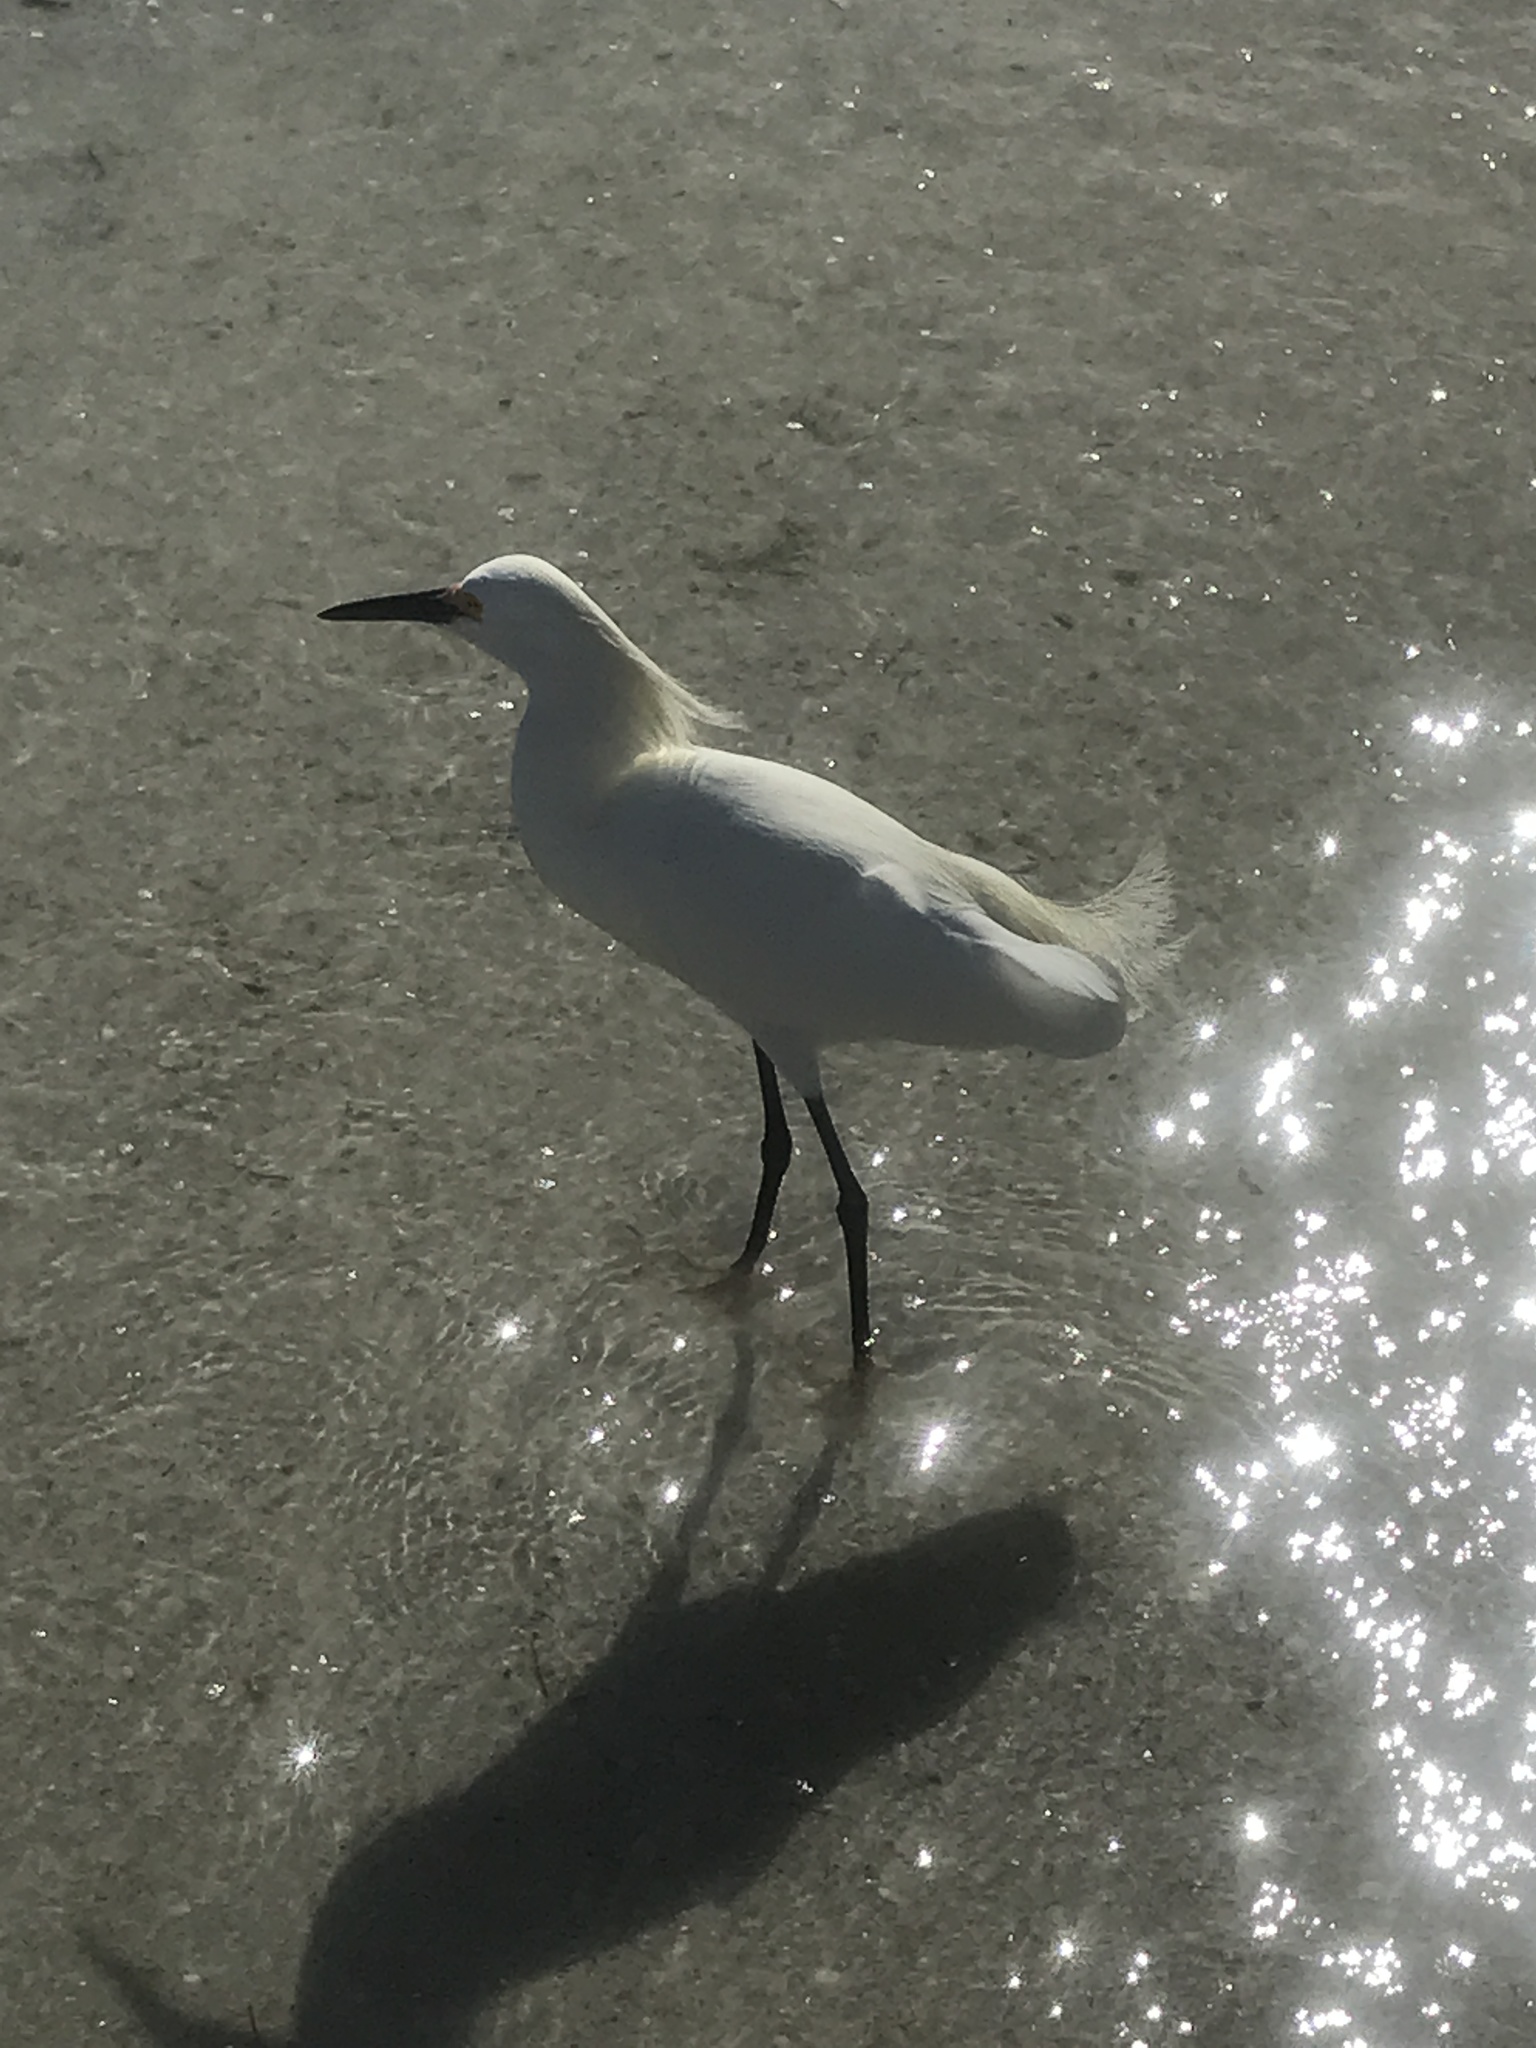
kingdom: Animalia
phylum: Chordata
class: Aves
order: Pelecaniformes
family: Ardeidae
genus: Egretta
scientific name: Egretta thula
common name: Snowy egret
